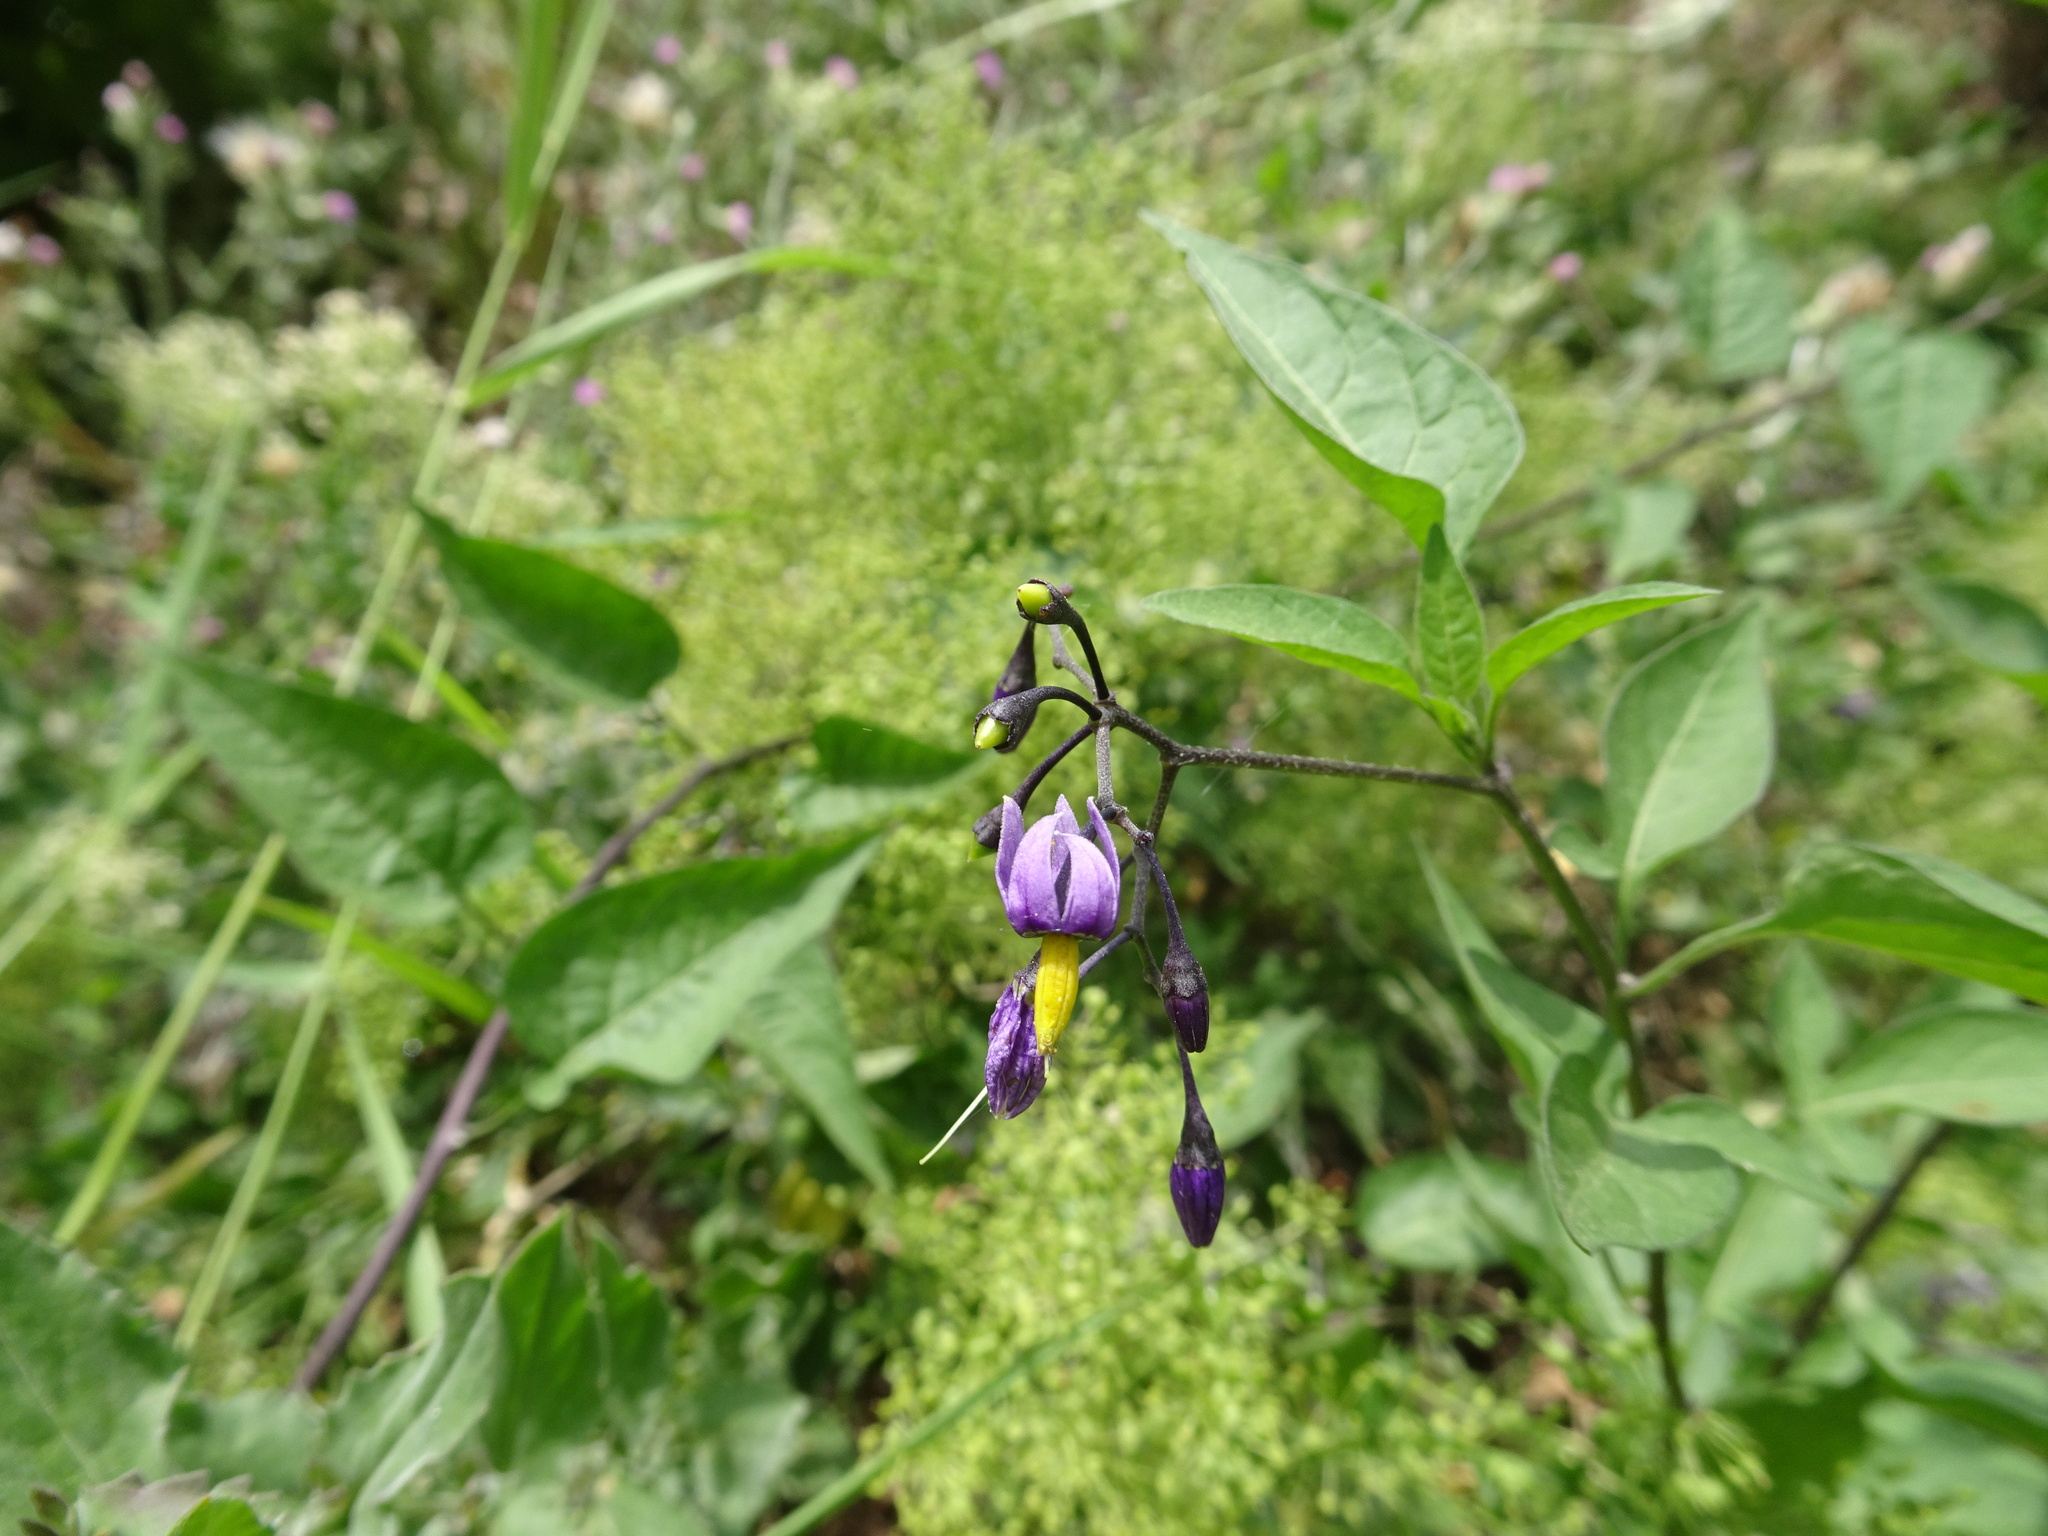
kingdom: Plantae
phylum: Tracheophyta
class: Magnoliopsida
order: Solanales
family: Solanaceae
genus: Solanum
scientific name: Solanum dulcamara
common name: Climbing nightshade
